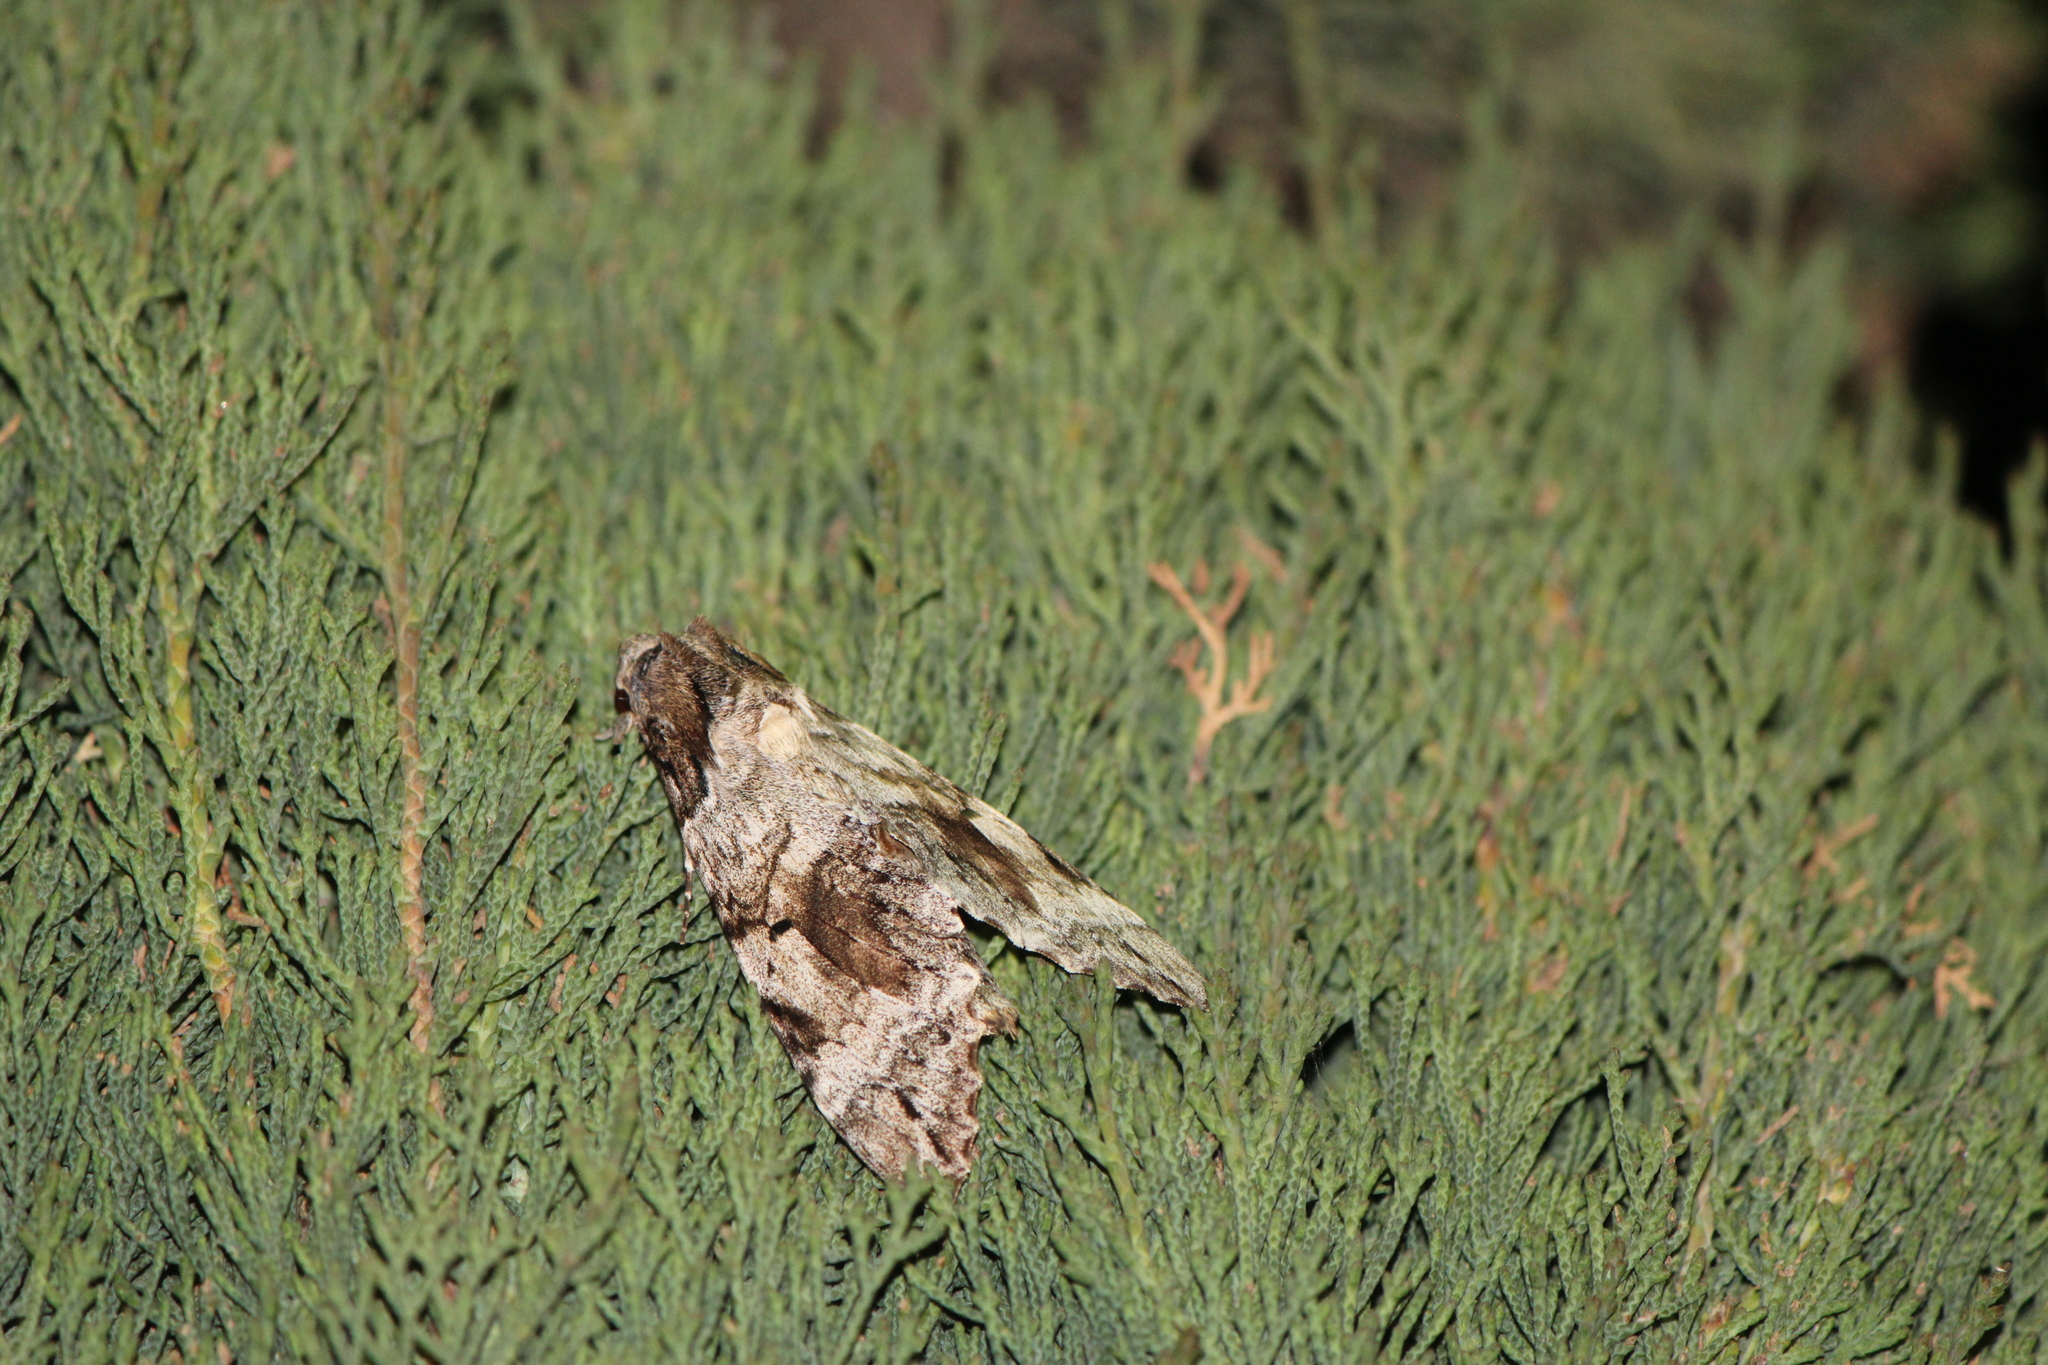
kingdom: Animalia
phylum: Arthropoda
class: Insecta
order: Lepidoptera
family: Sphingidae
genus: Pseudosphinx
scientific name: Pseudosphinx tetrio
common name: Tetrio sphinx
